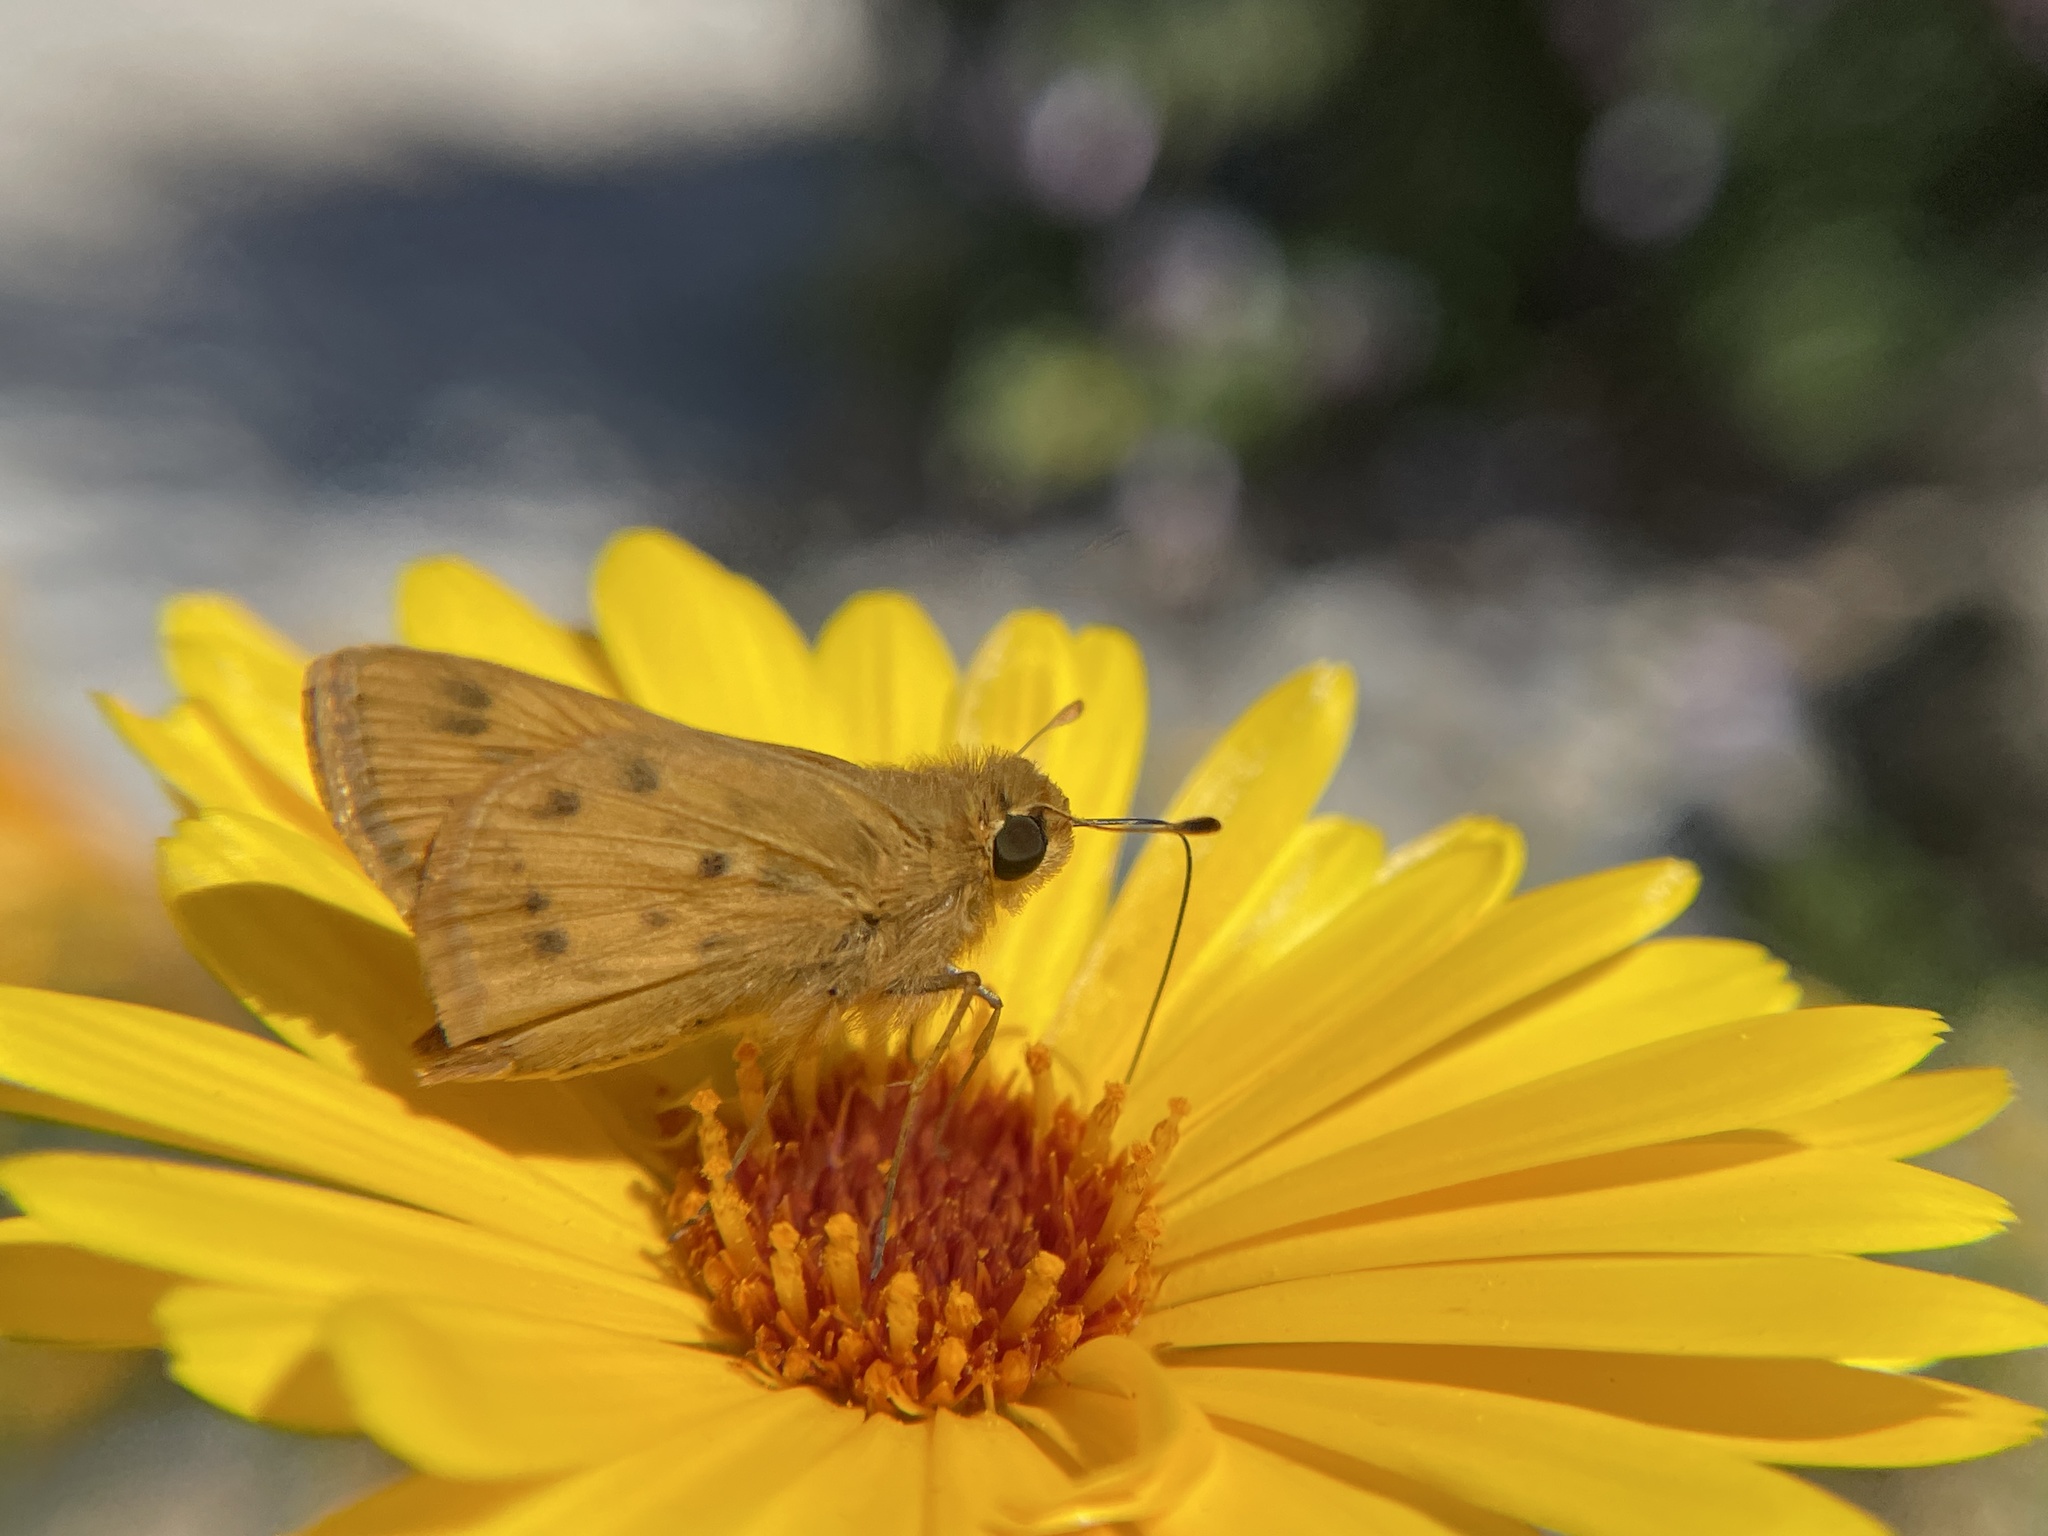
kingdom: Animalia
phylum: Arthropoda
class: Insecta
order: Lepidoptera
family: Hesperiidae
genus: Hylephila
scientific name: Hylephila phyleus
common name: Fiery skipper
